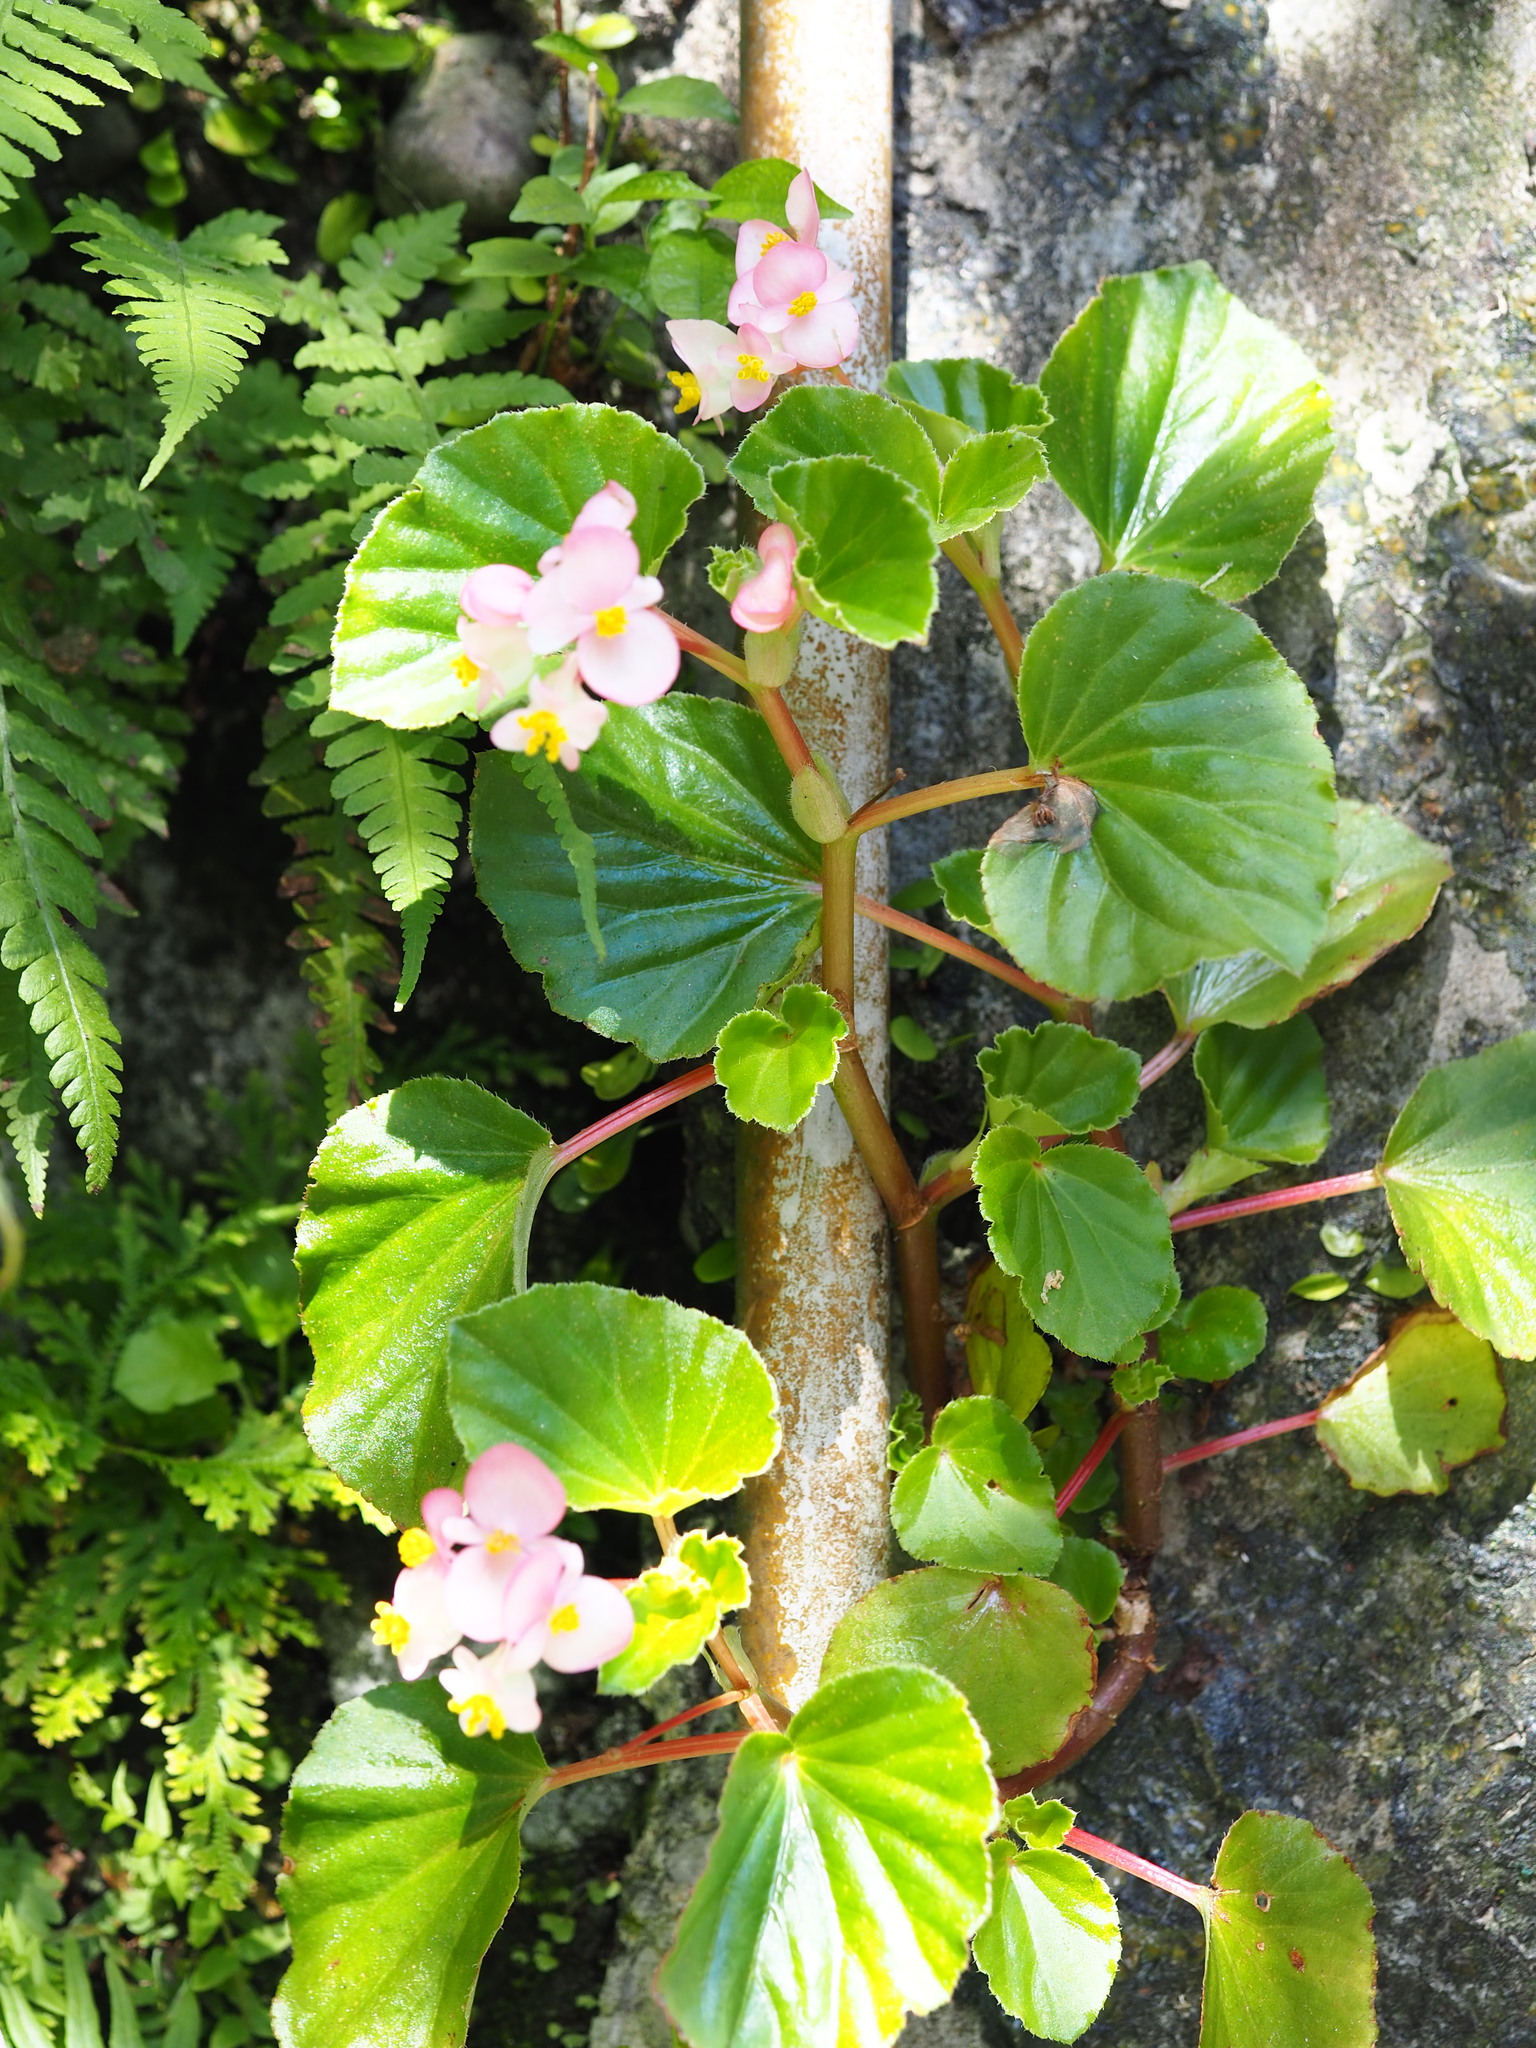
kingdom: Plantae
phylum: Tracheophyta
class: Magnoliopsida
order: Cucurbitales
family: Begoniaceae
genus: Begonia
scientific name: Begonia cucullata
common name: Clubbed begonia
